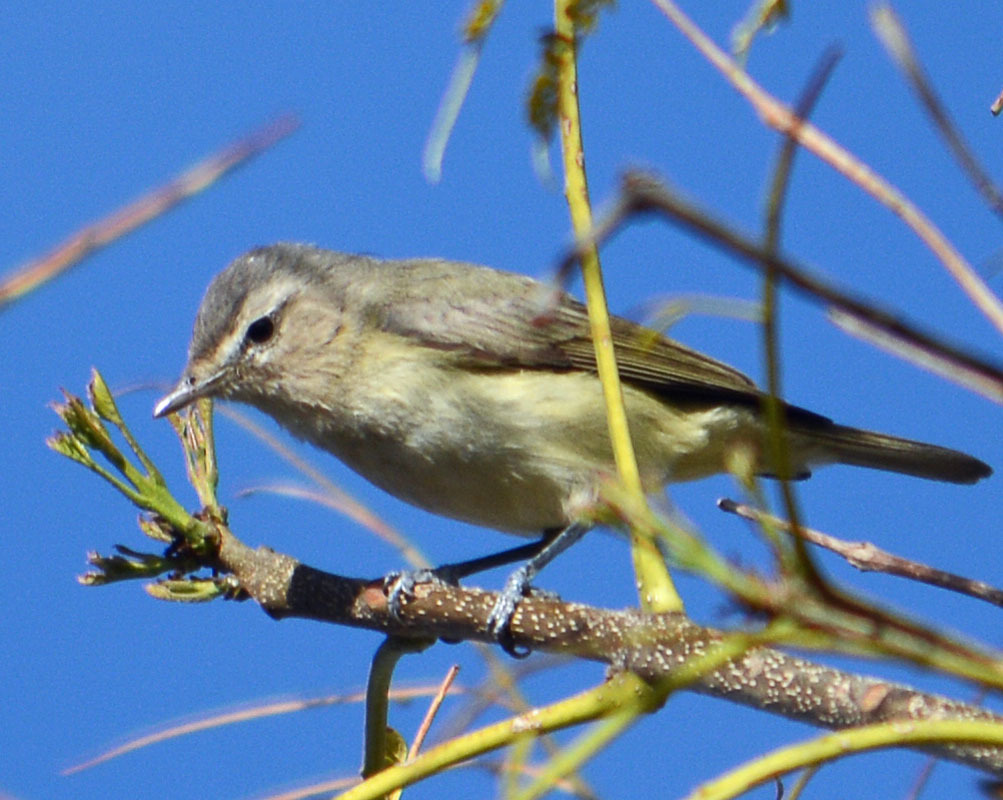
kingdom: Animalia
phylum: Chordata
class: Aves
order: Passeriformes
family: Vireonidae
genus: Vireo
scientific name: Vireo gilvus
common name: Warbling vireo
